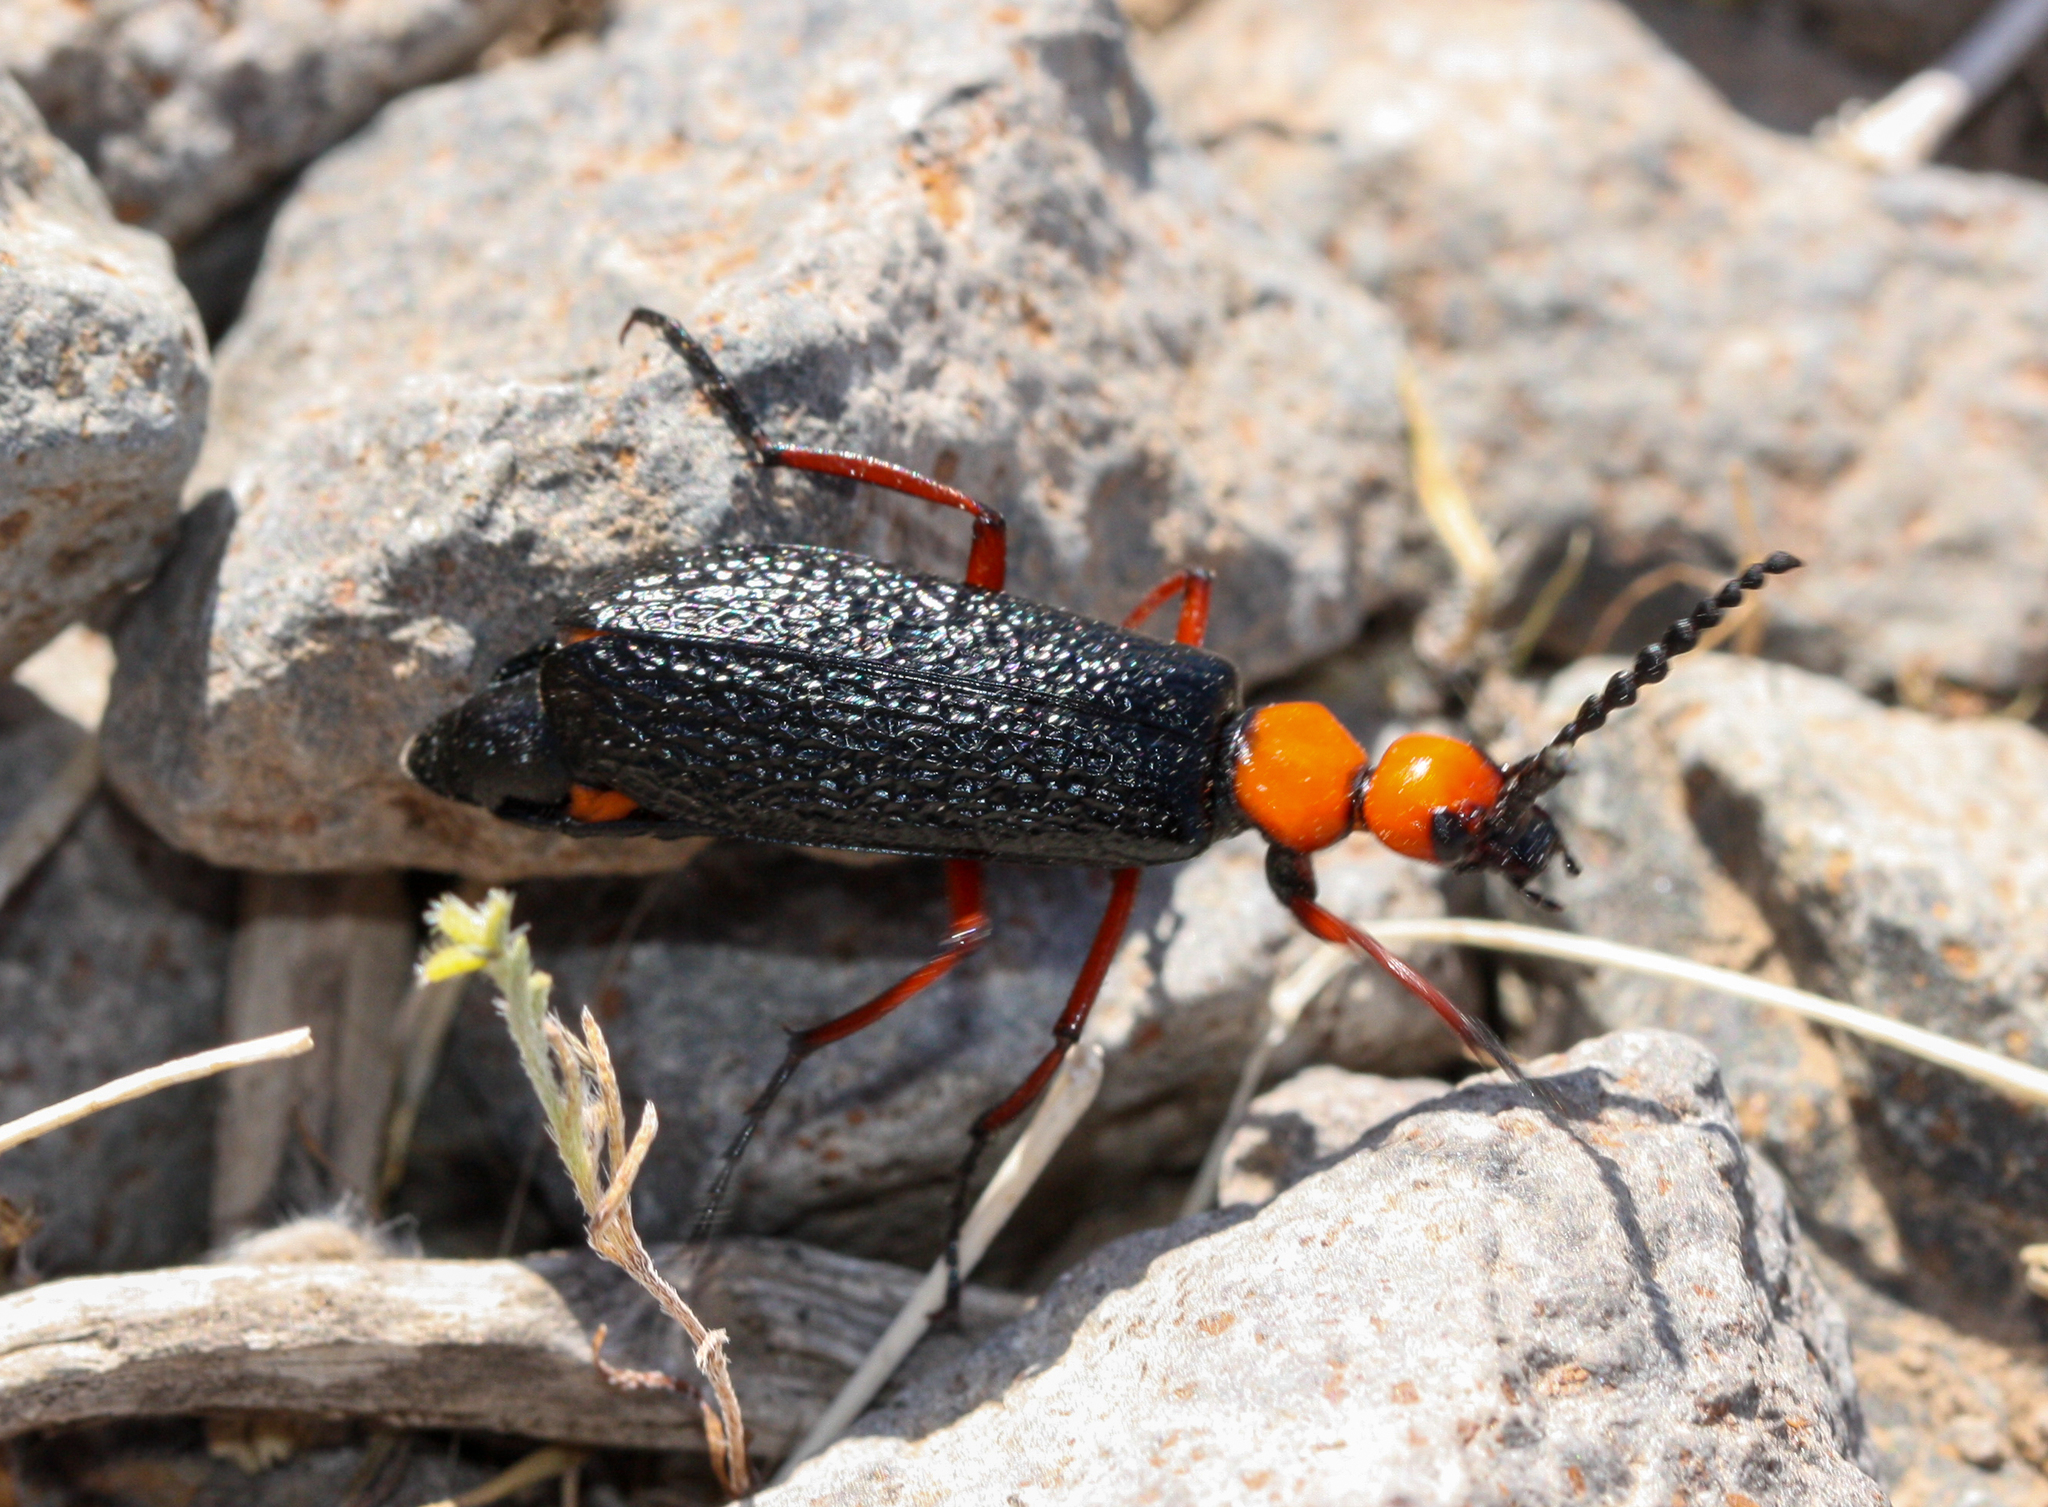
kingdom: Animalia
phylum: Arthropoda
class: Insecta
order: Coleoptera
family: Meloidae
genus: Lytta
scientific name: Lytta magister
